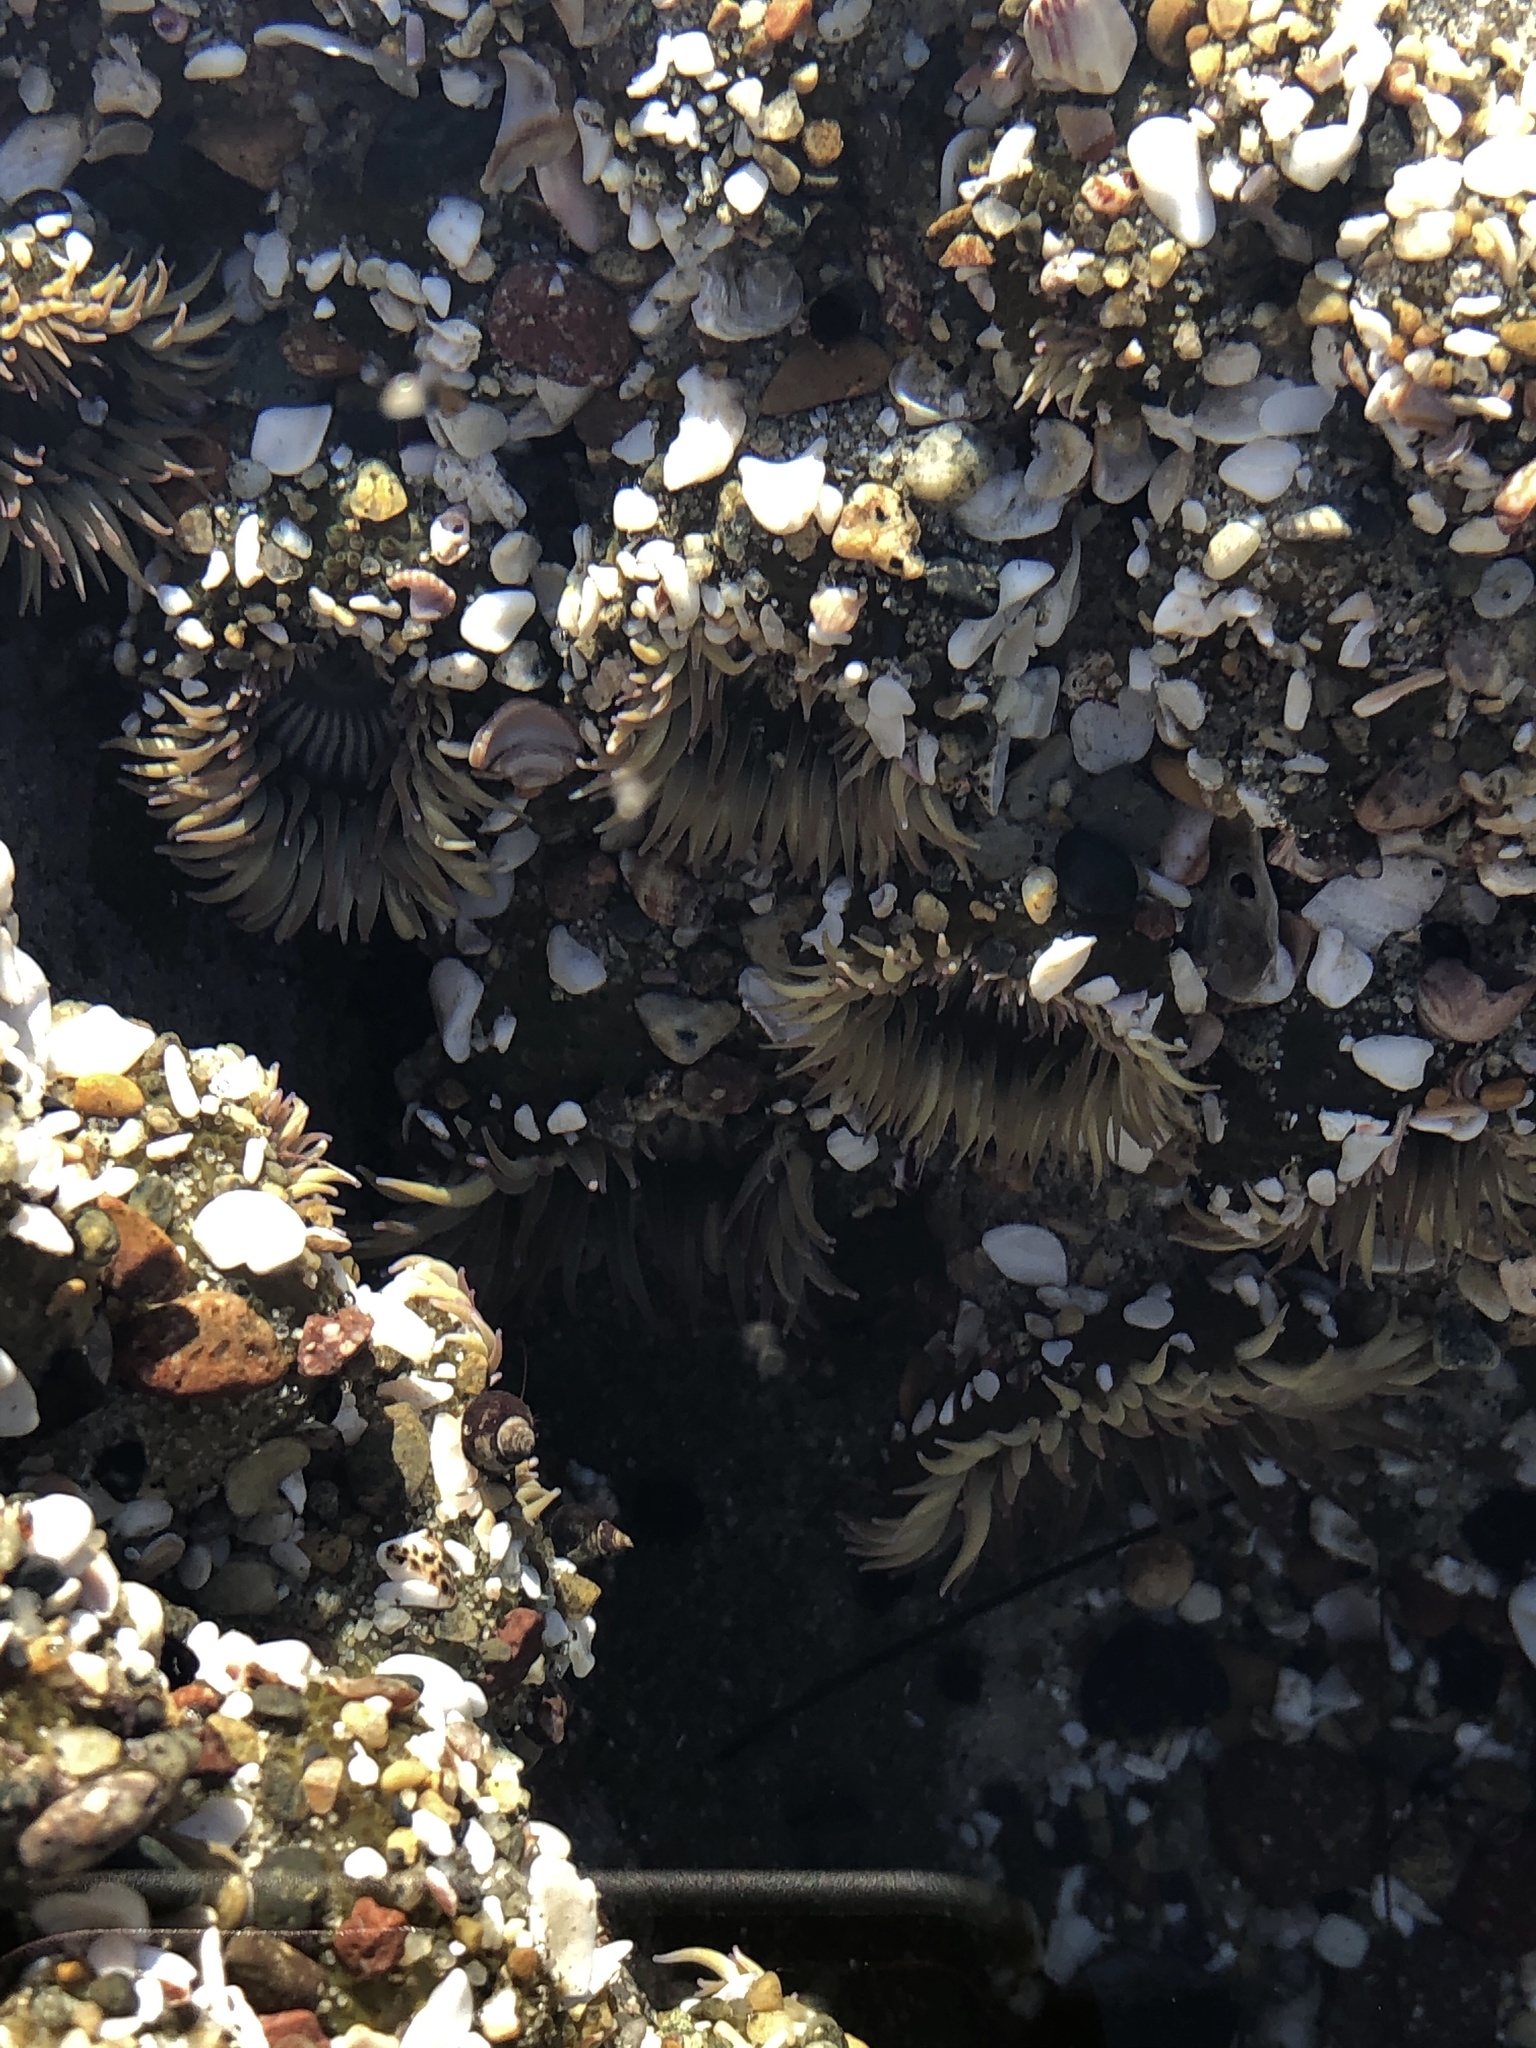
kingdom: Animalia
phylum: Cnidaria
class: Anthozoa
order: Actiniaria
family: Actiniidae
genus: Anthopleura
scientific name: Anthopleura elegantissima
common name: Clonal anemone
